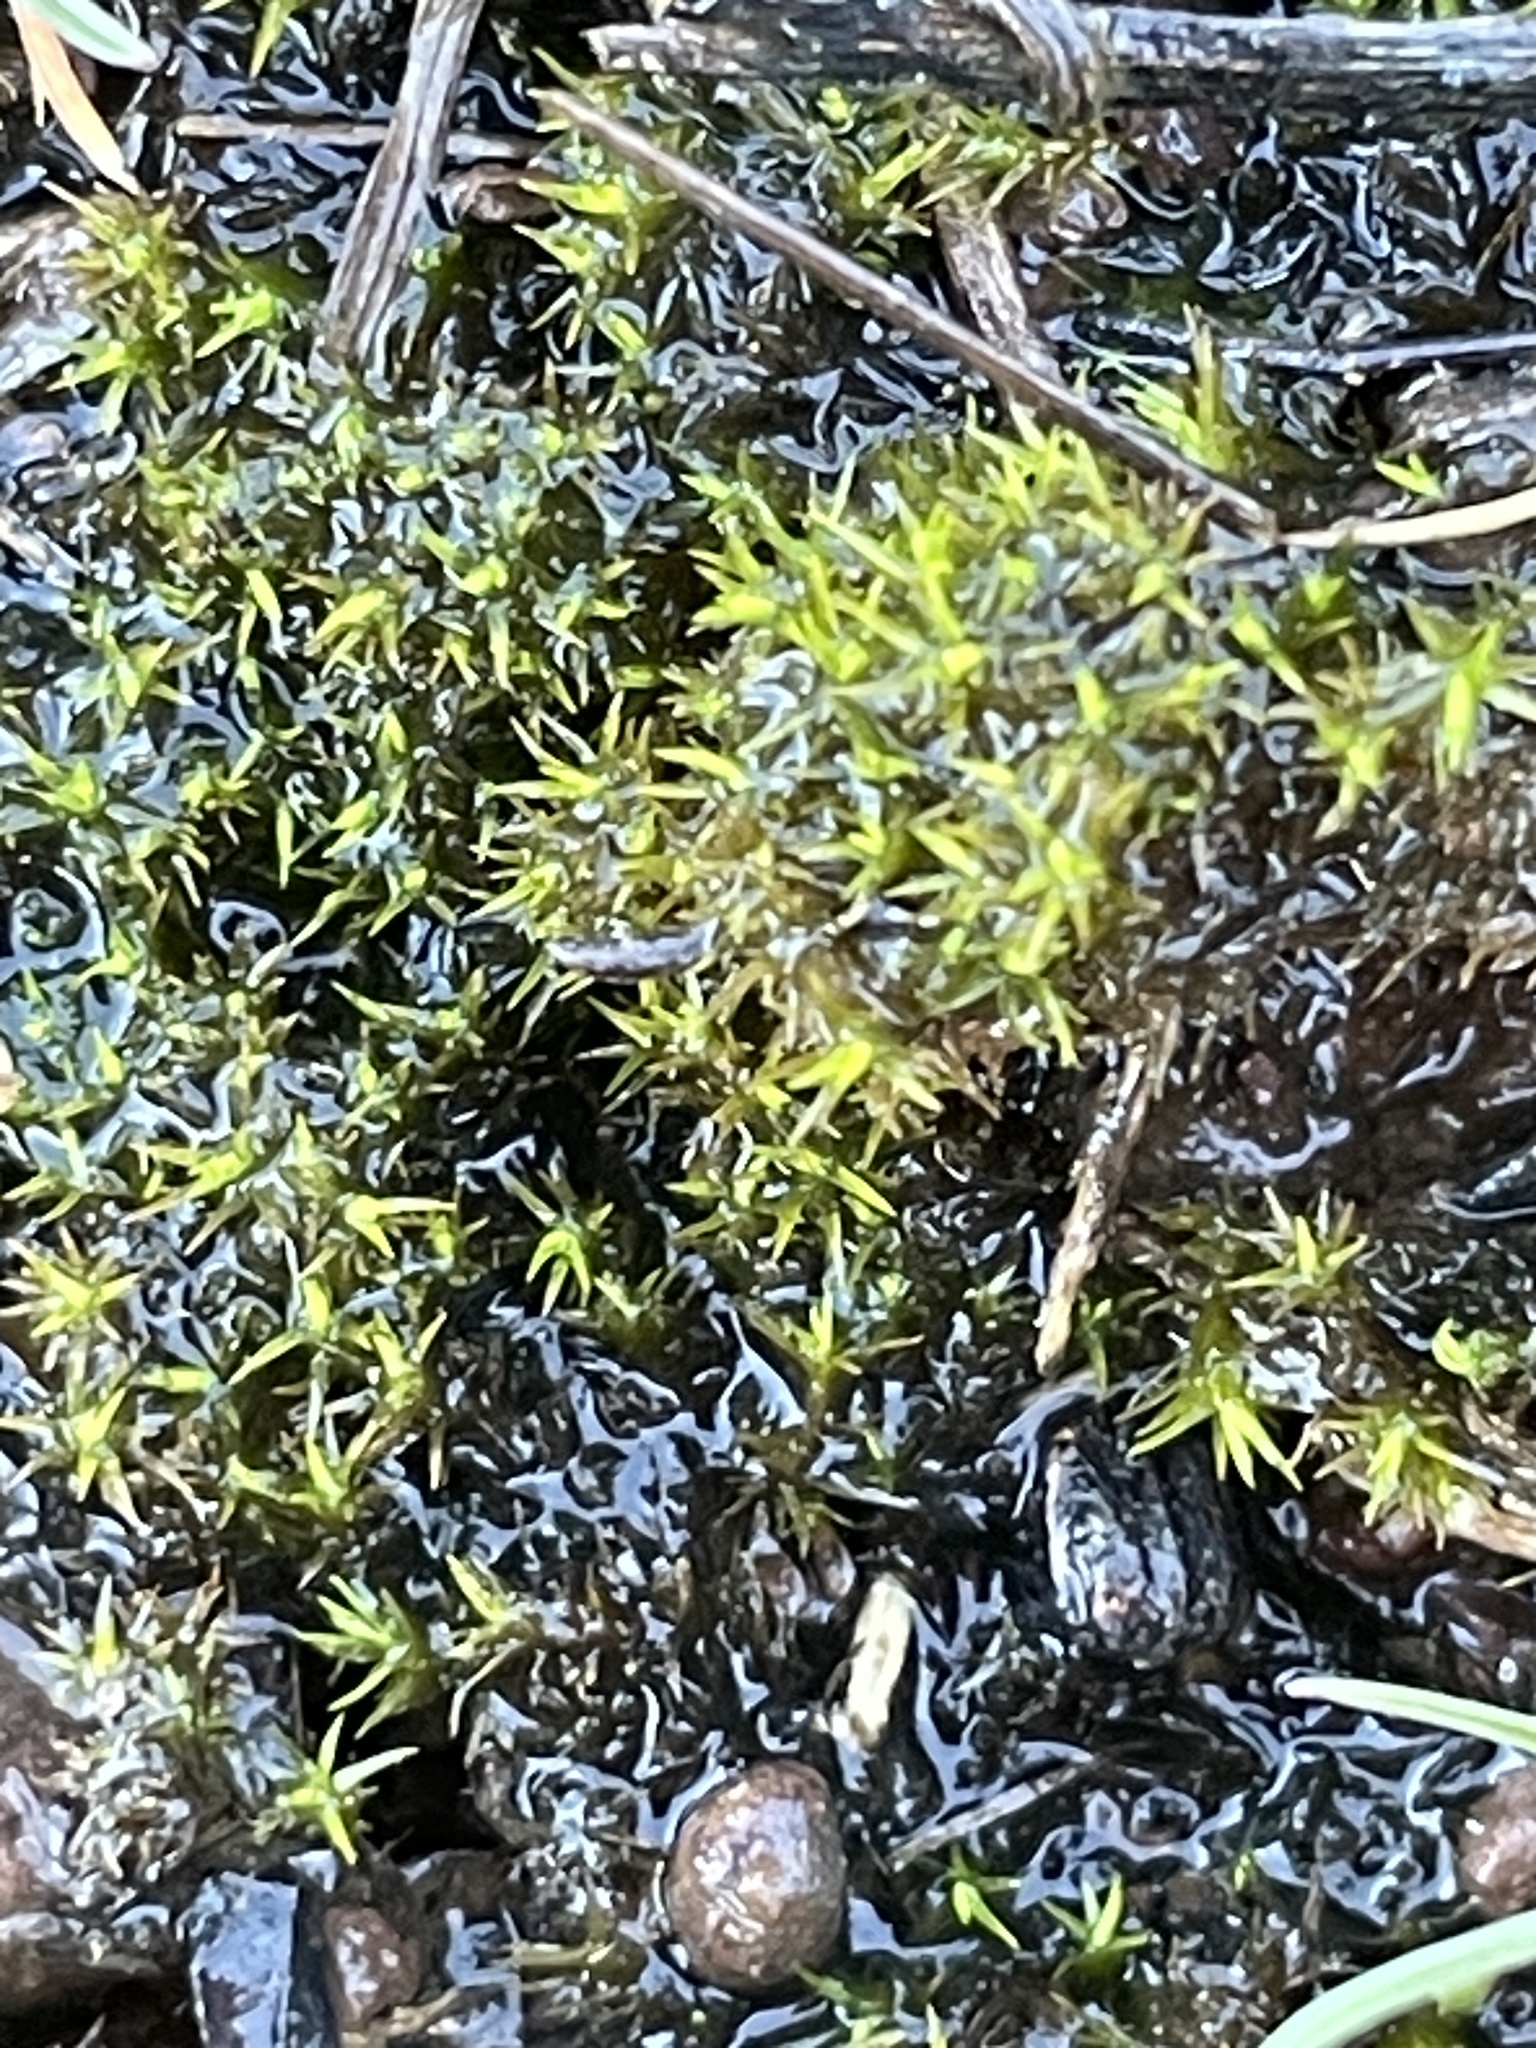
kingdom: Plantae
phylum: Bryophyta
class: Bryopsida
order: Pottiales
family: Pottiaceae
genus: Weissia
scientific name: Weissia controversa
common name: Green-tufted stubble moss
